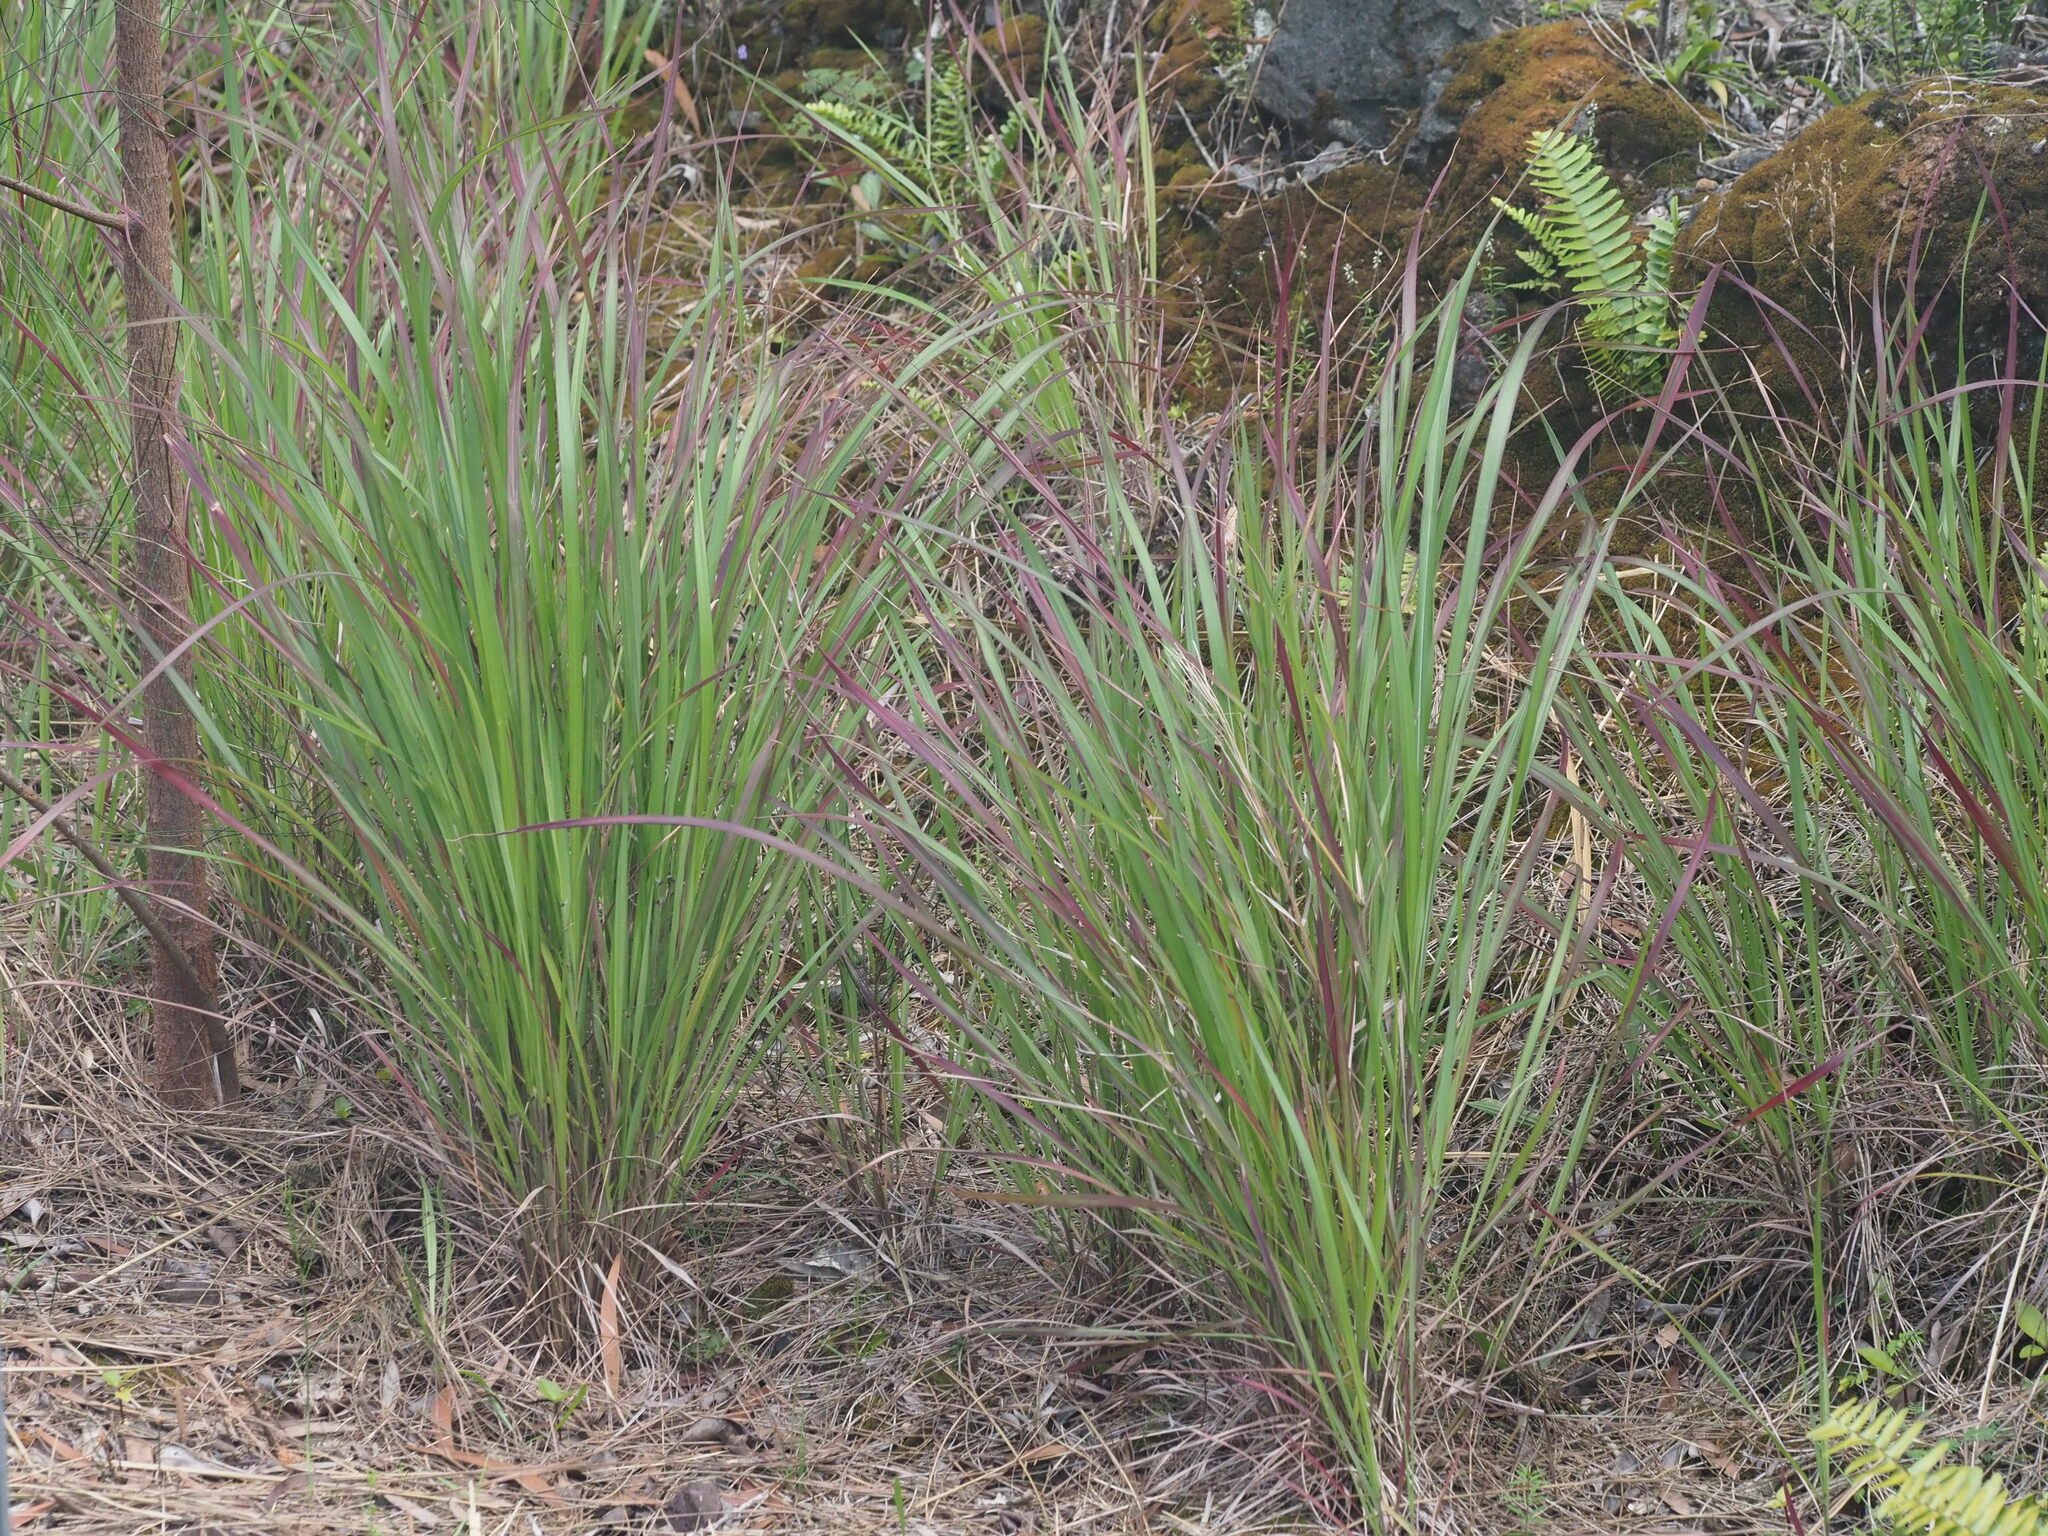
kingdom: Plantae
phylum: Tracheophyta
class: Liliopsida
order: Poales
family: Poaceae
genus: Hyparrhenia
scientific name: Hyparrhenia rufa
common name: Jaraguagrass
